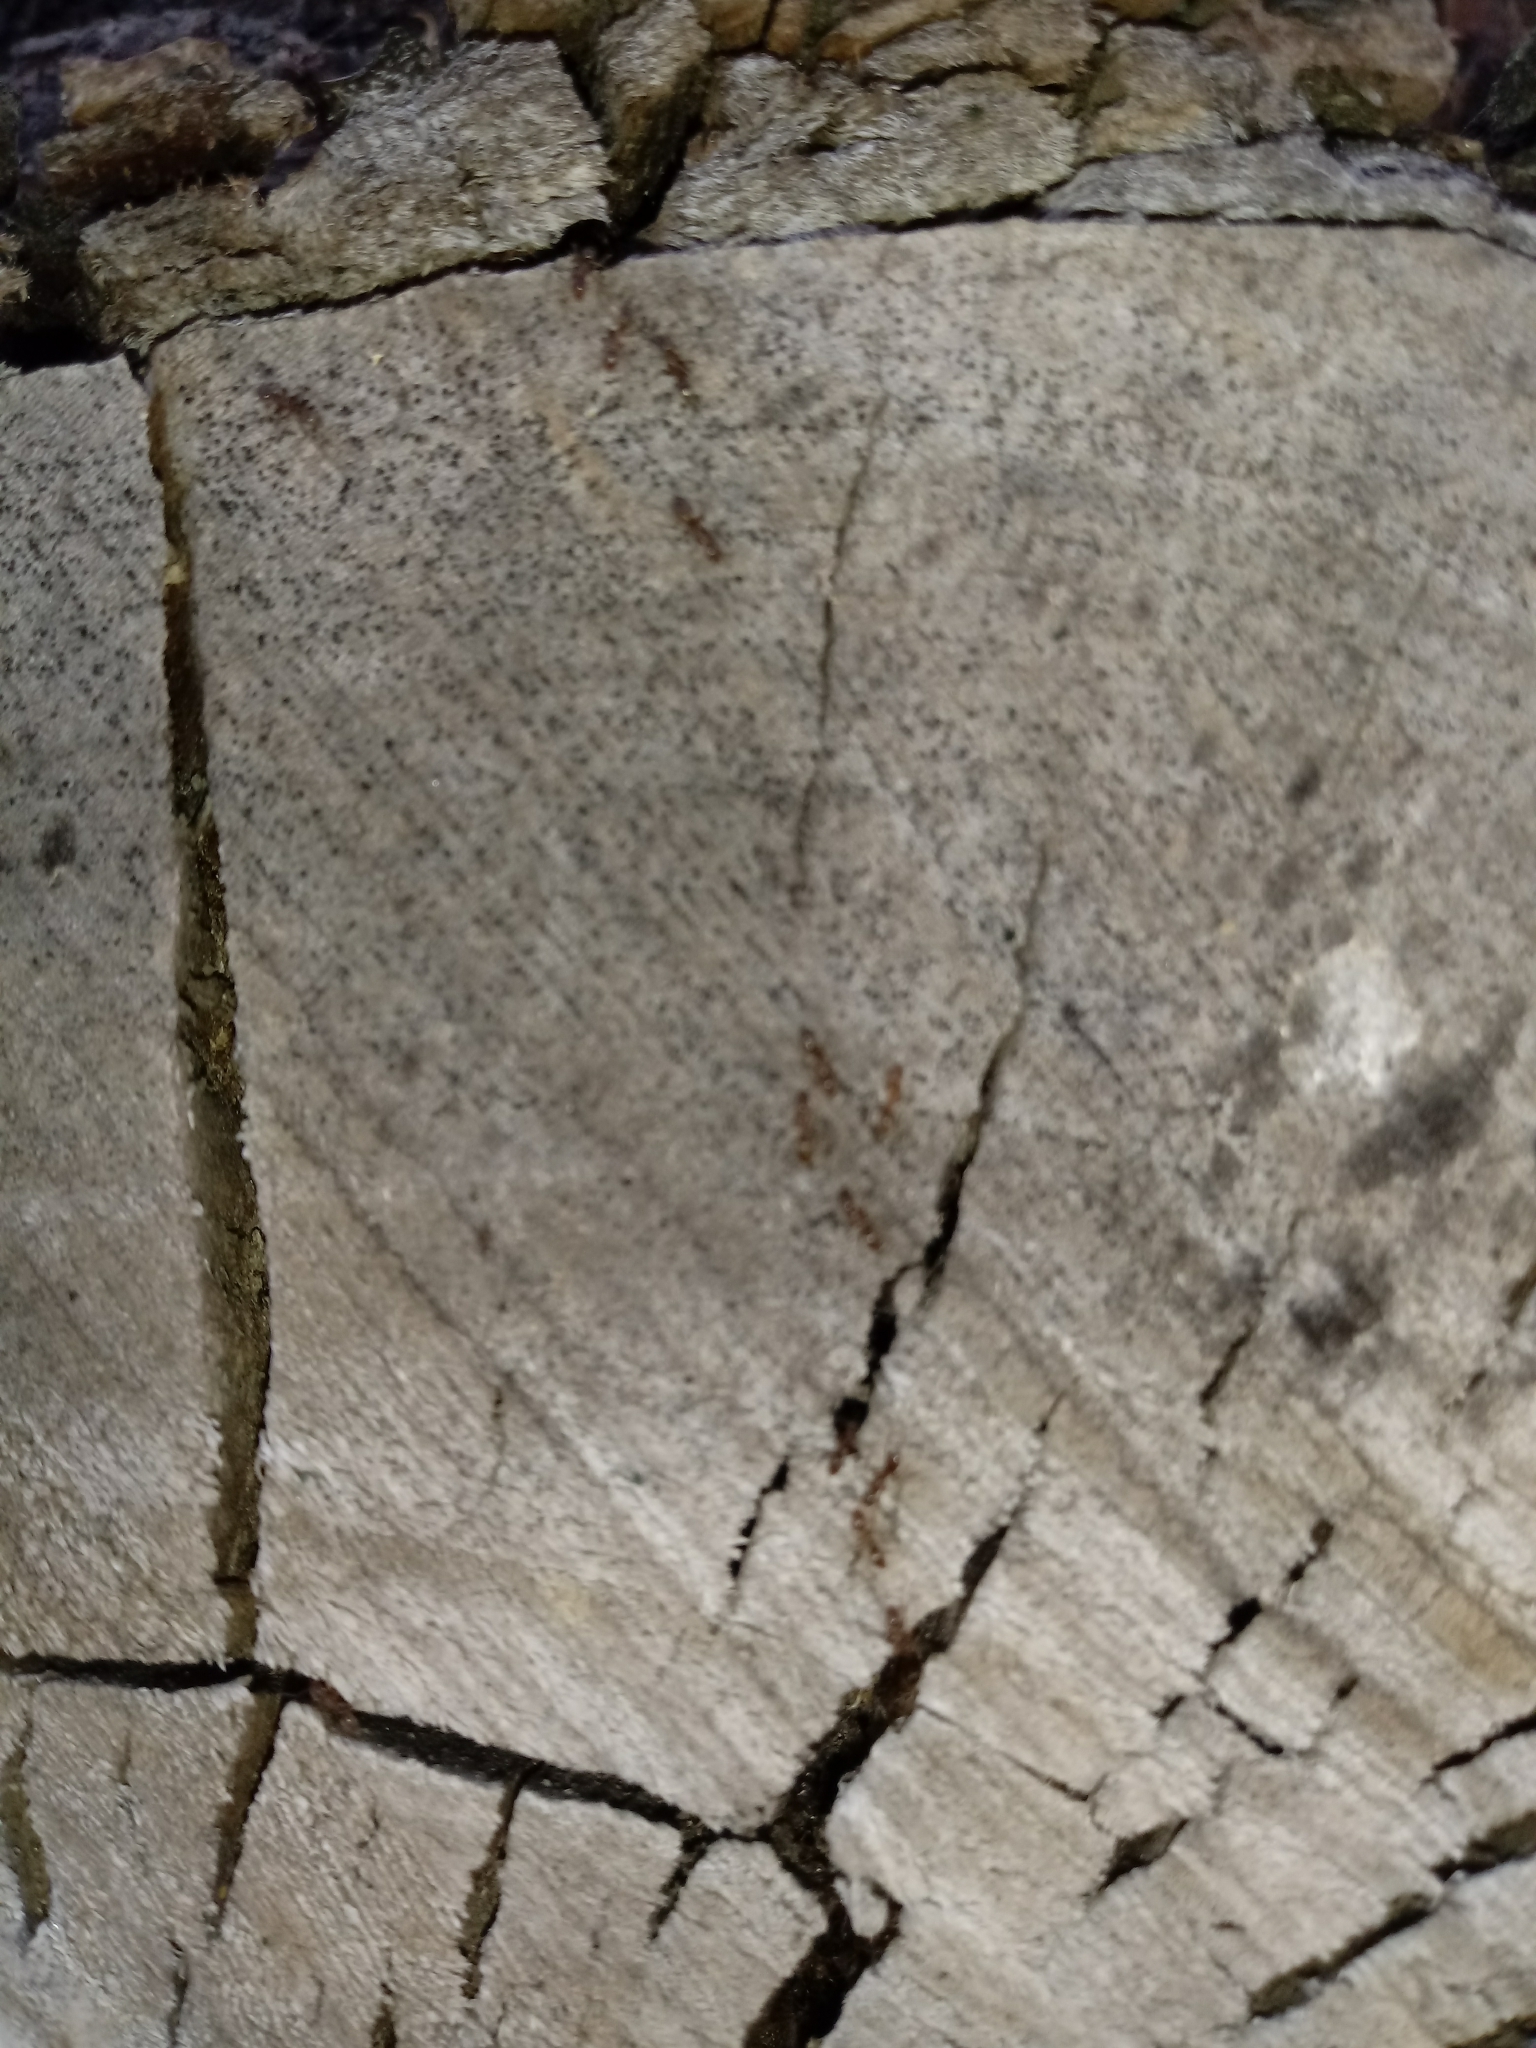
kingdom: Animalia
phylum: Arthropoda
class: Insecta
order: Hymenoptera
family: Formicidae
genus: Linepithema
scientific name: Linepithema humile
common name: Argentine ant
